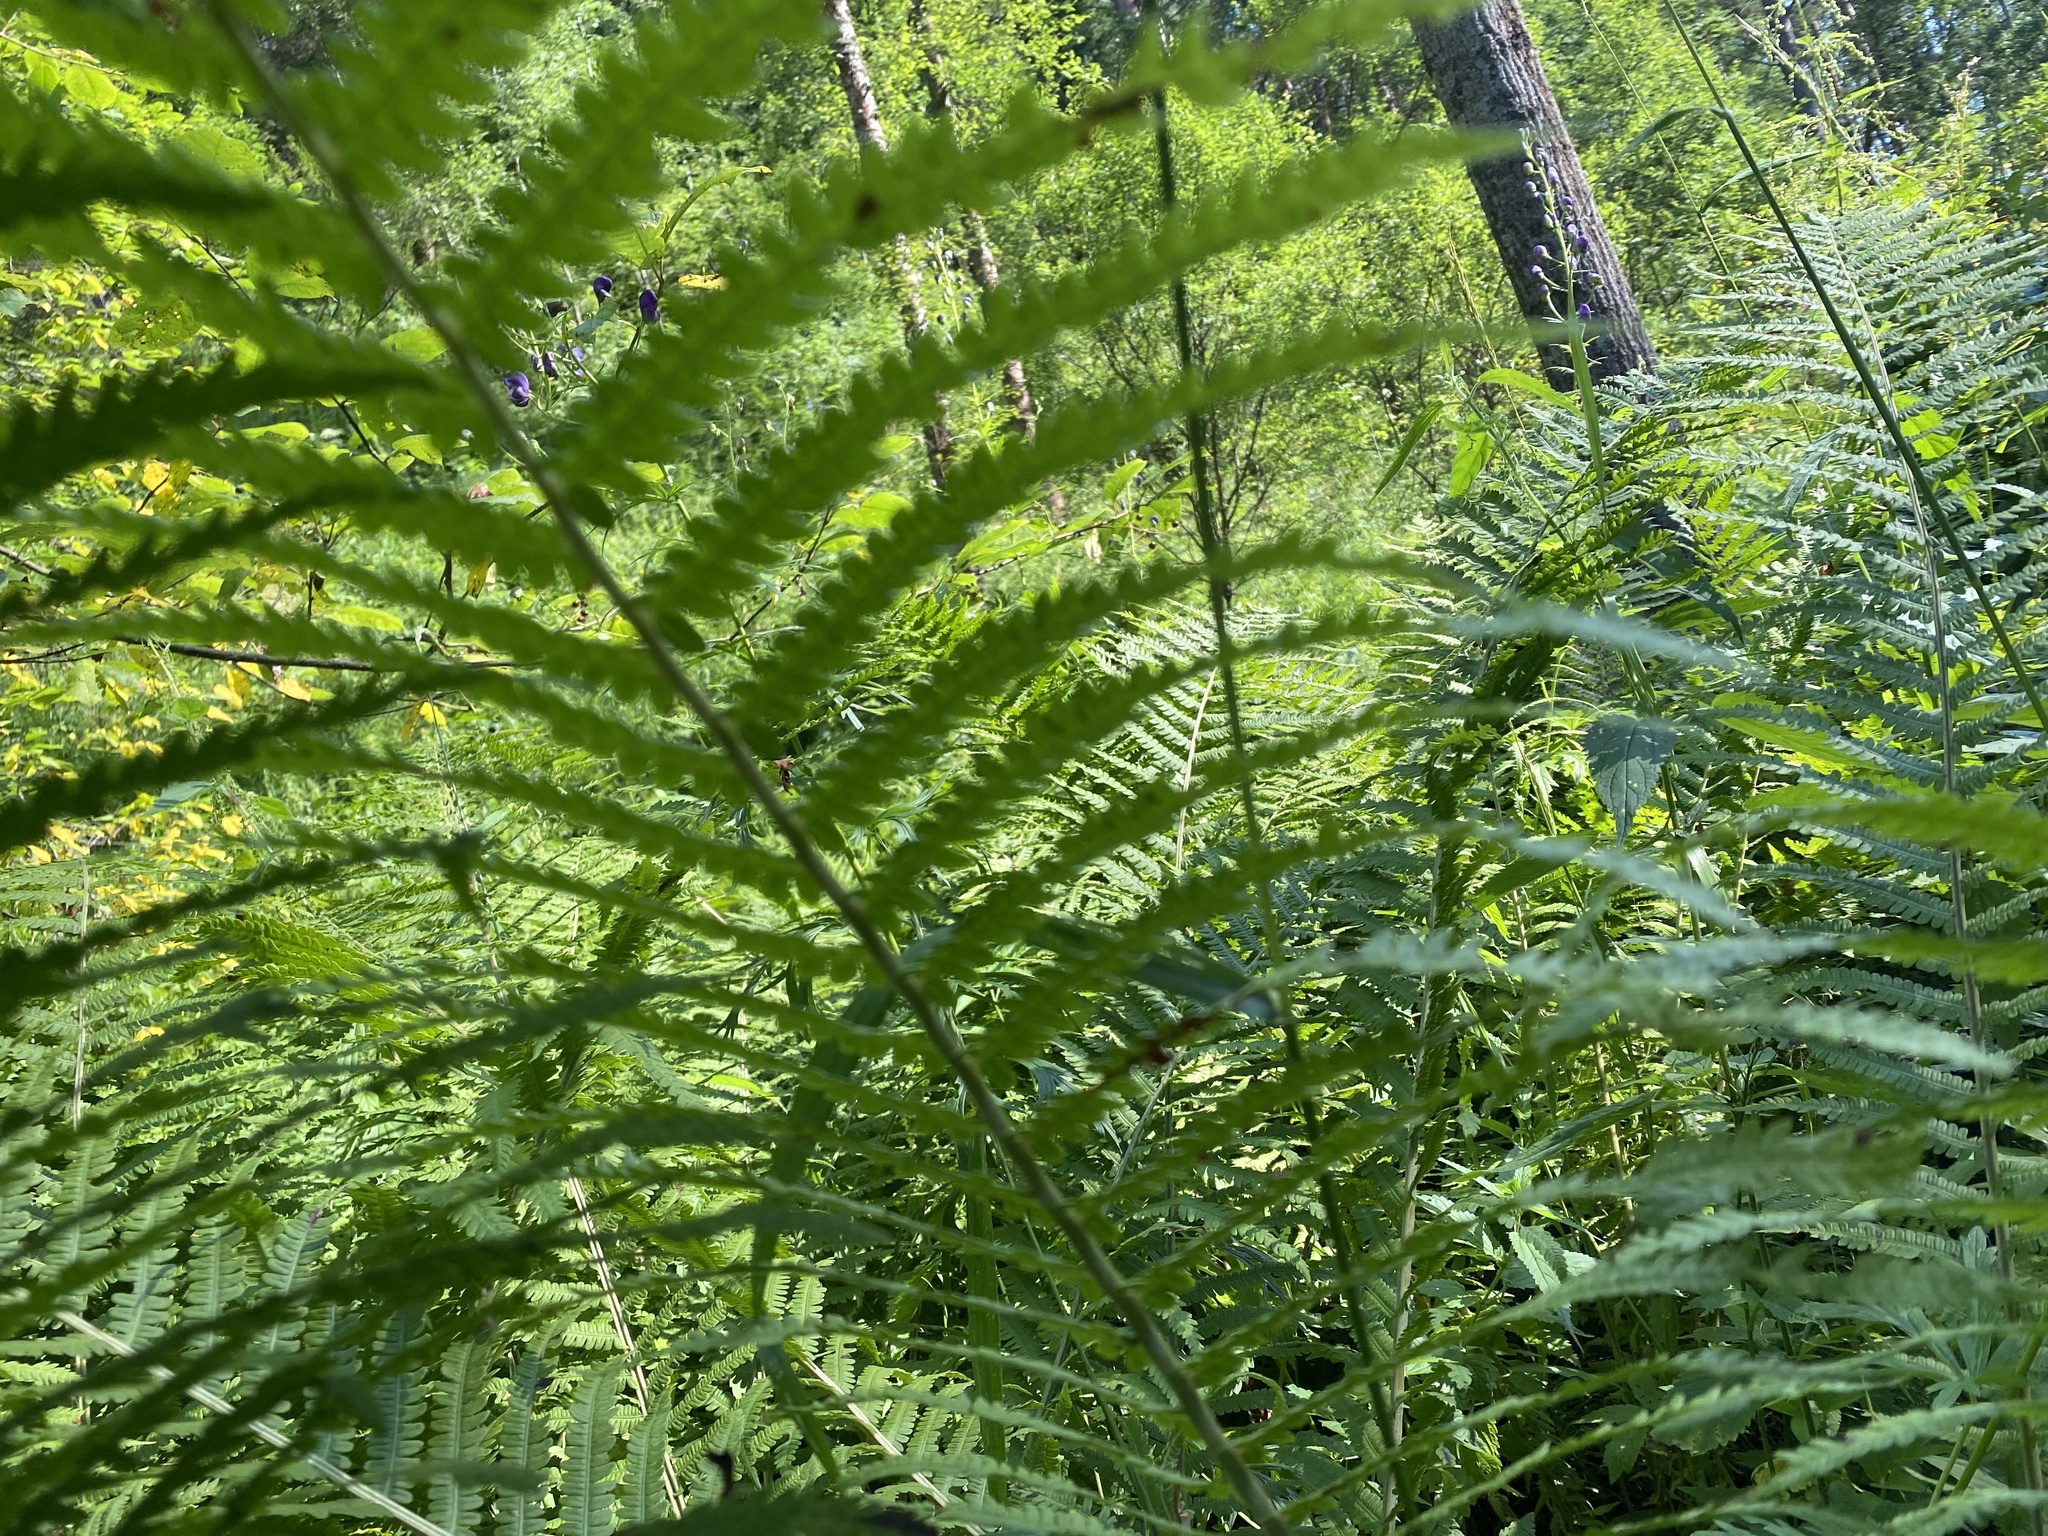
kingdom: Plantae
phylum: Tracheophyta
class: Polypodiopsida
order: Polypodiales
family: Onocleaceae
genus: Matteuccia
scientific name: Matteuccia struthiopteris
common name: Ostrich fern
